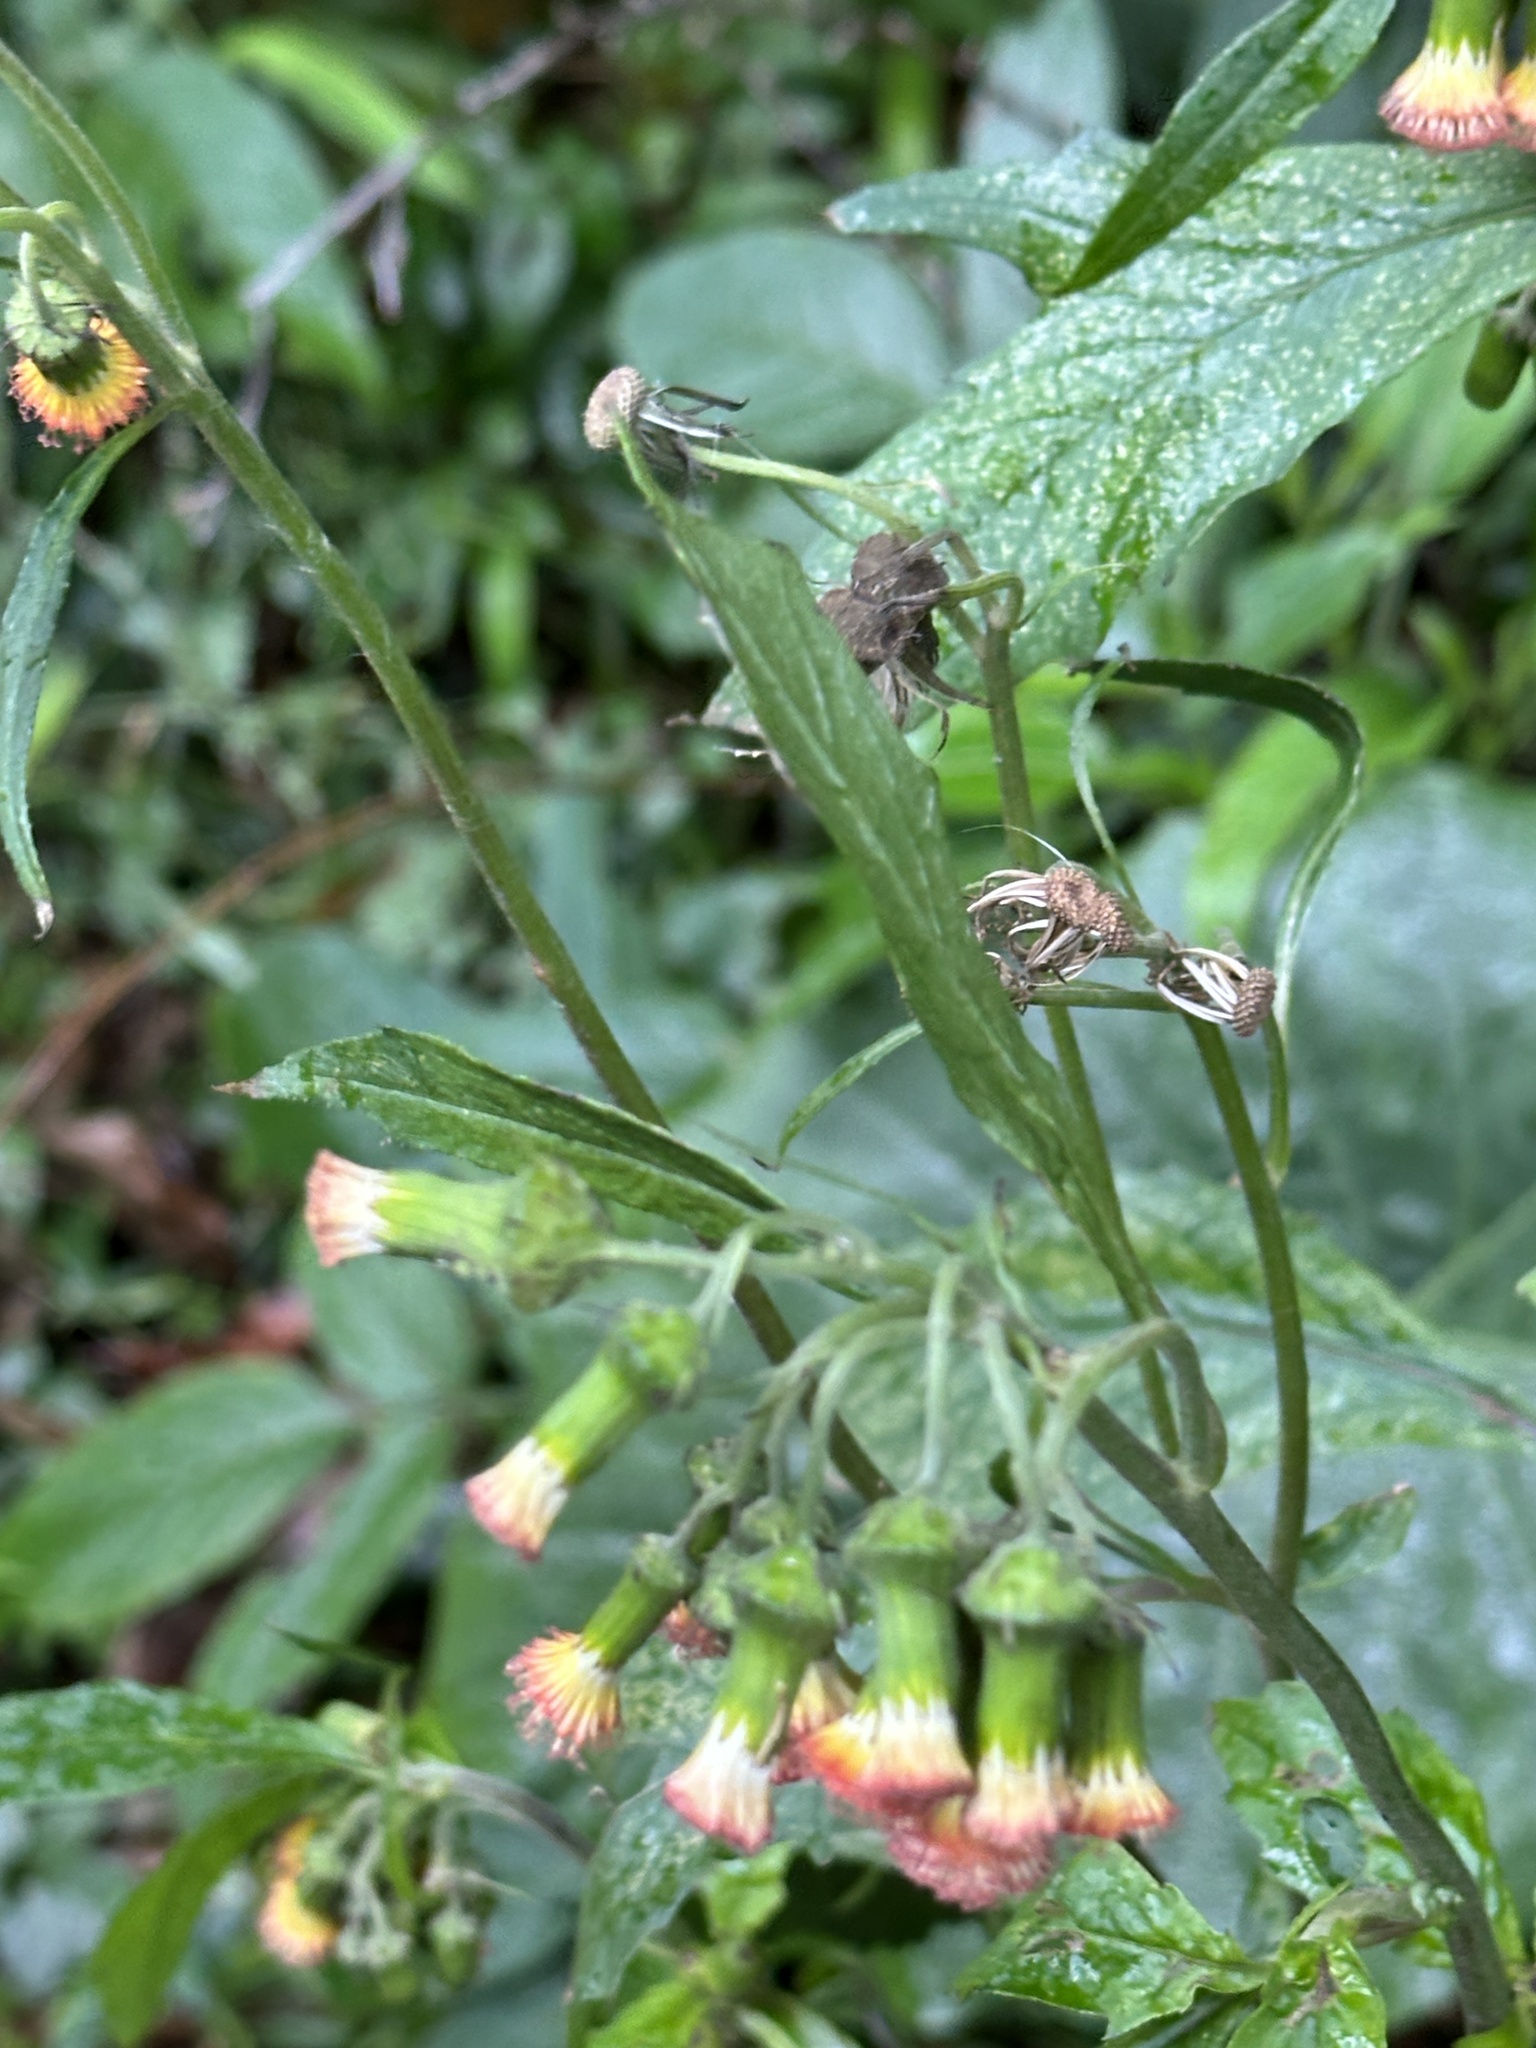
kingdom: Plantae
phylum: Tracheophyta
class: Magnoliopsida
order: Asterales
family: Asteraceae
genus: Crassocephalum
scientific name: Crassocephalum crepidioides
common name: Redflower ragleaf
